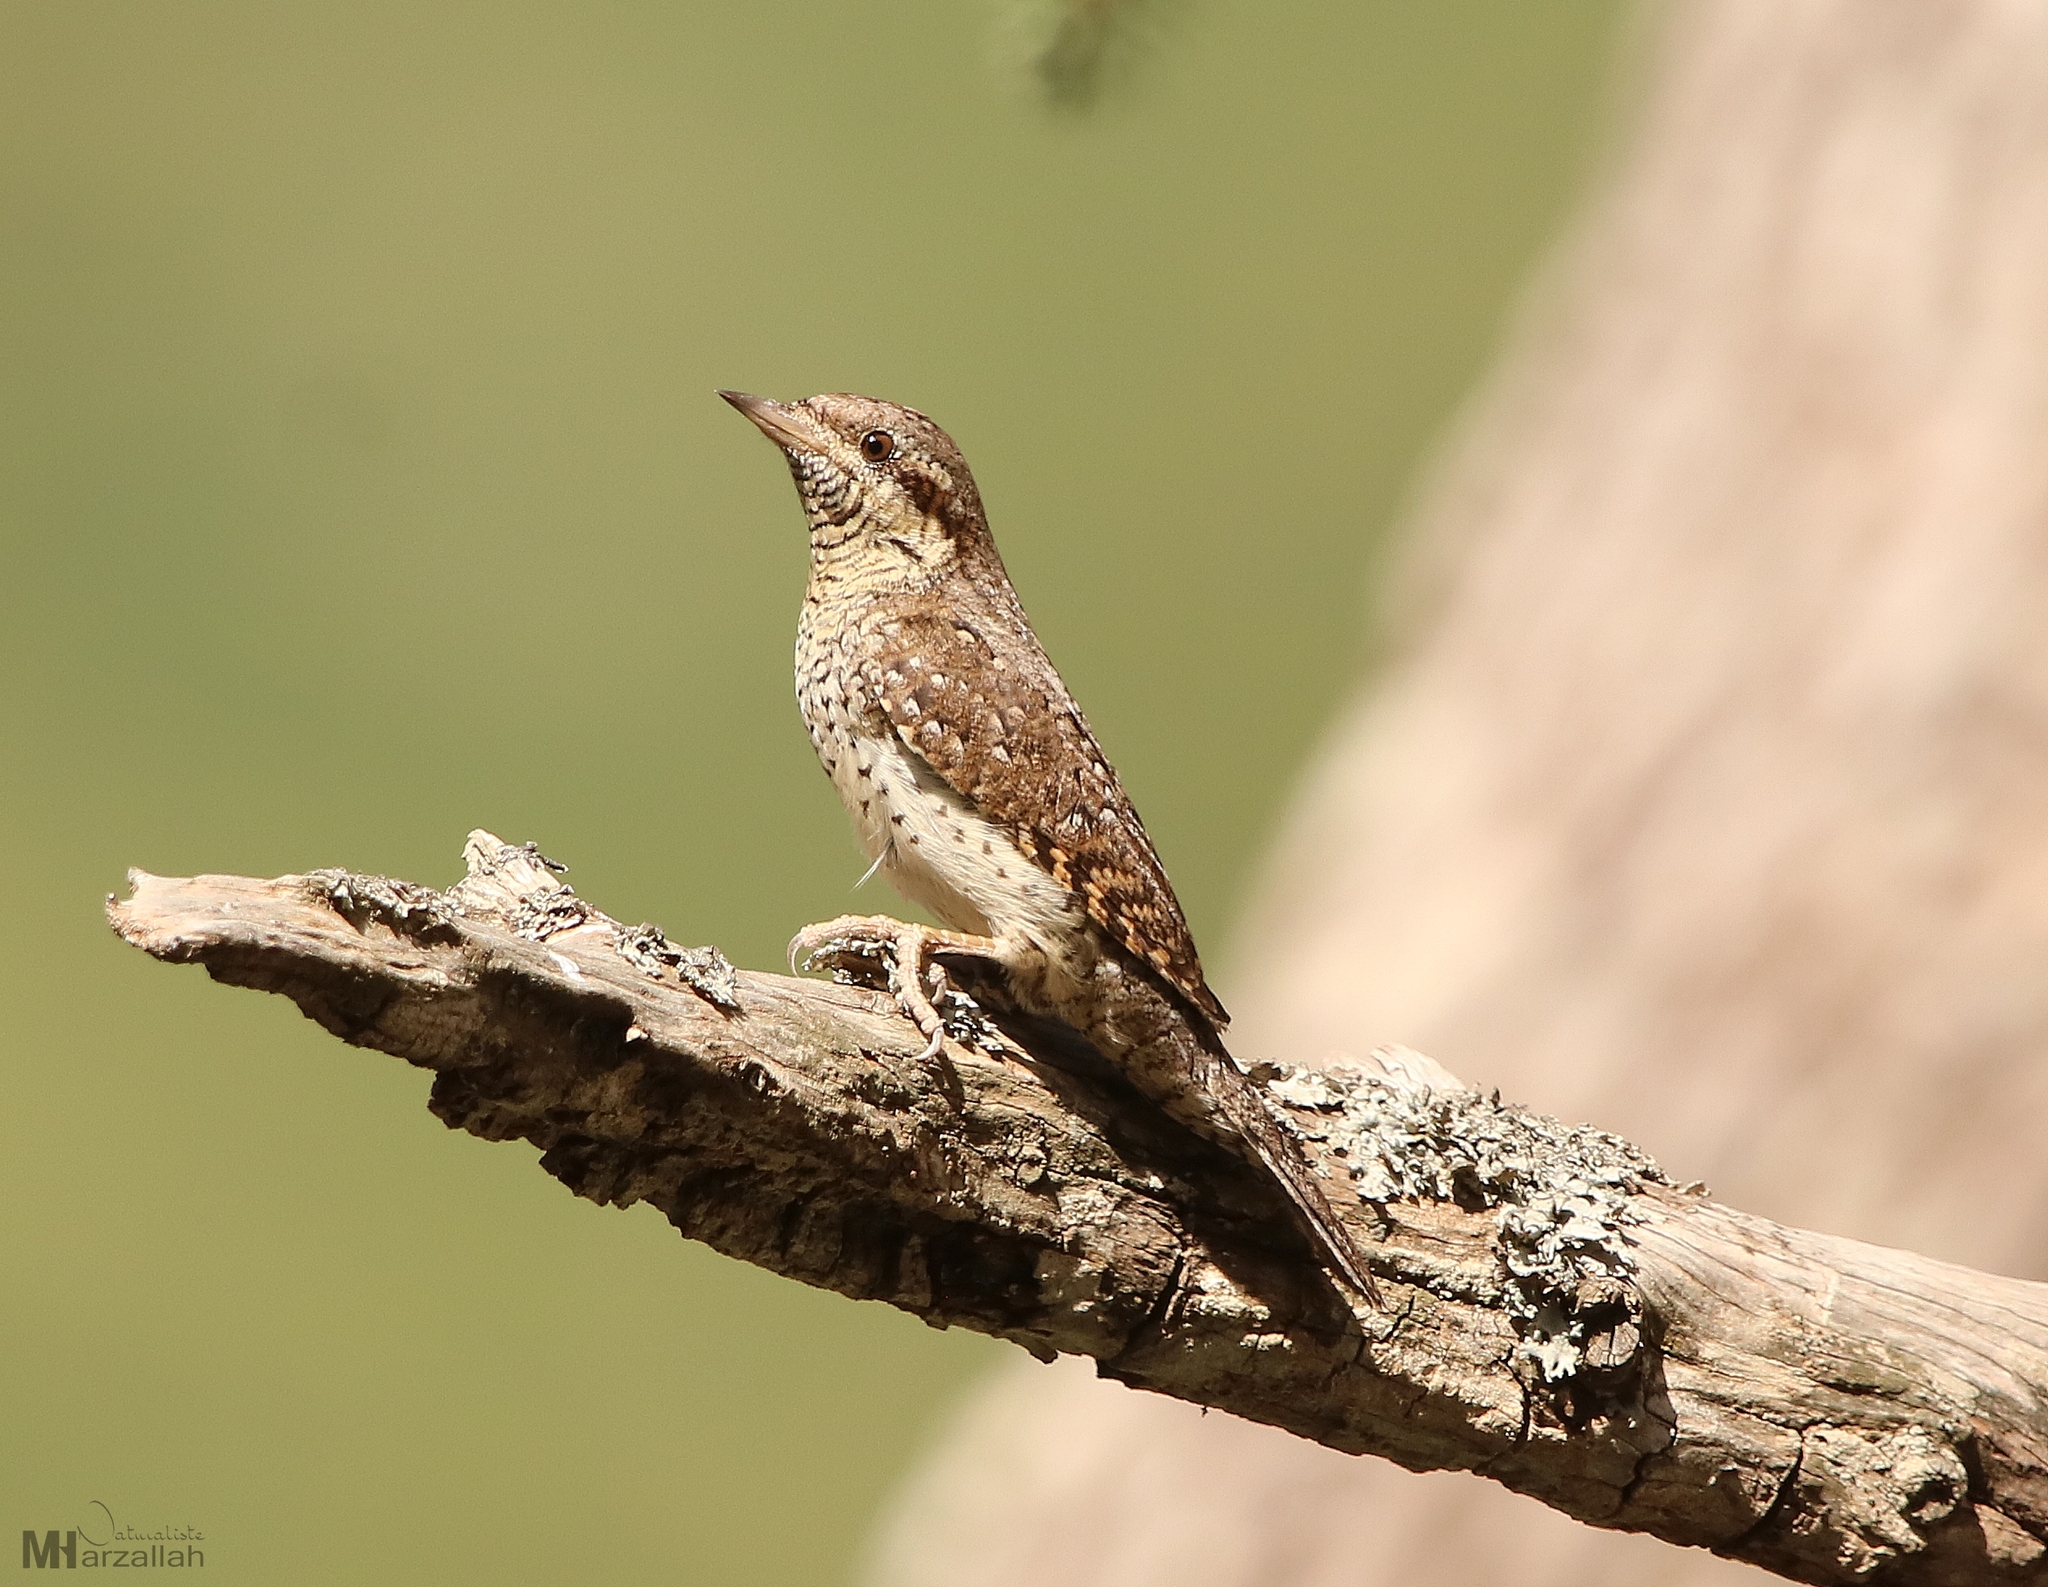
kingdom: Animalia
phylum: Chordata
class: Aves
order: Piciformes
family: Picidae
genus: Jynx
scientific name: Jynx torquilla
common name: Eurasian wryneck
